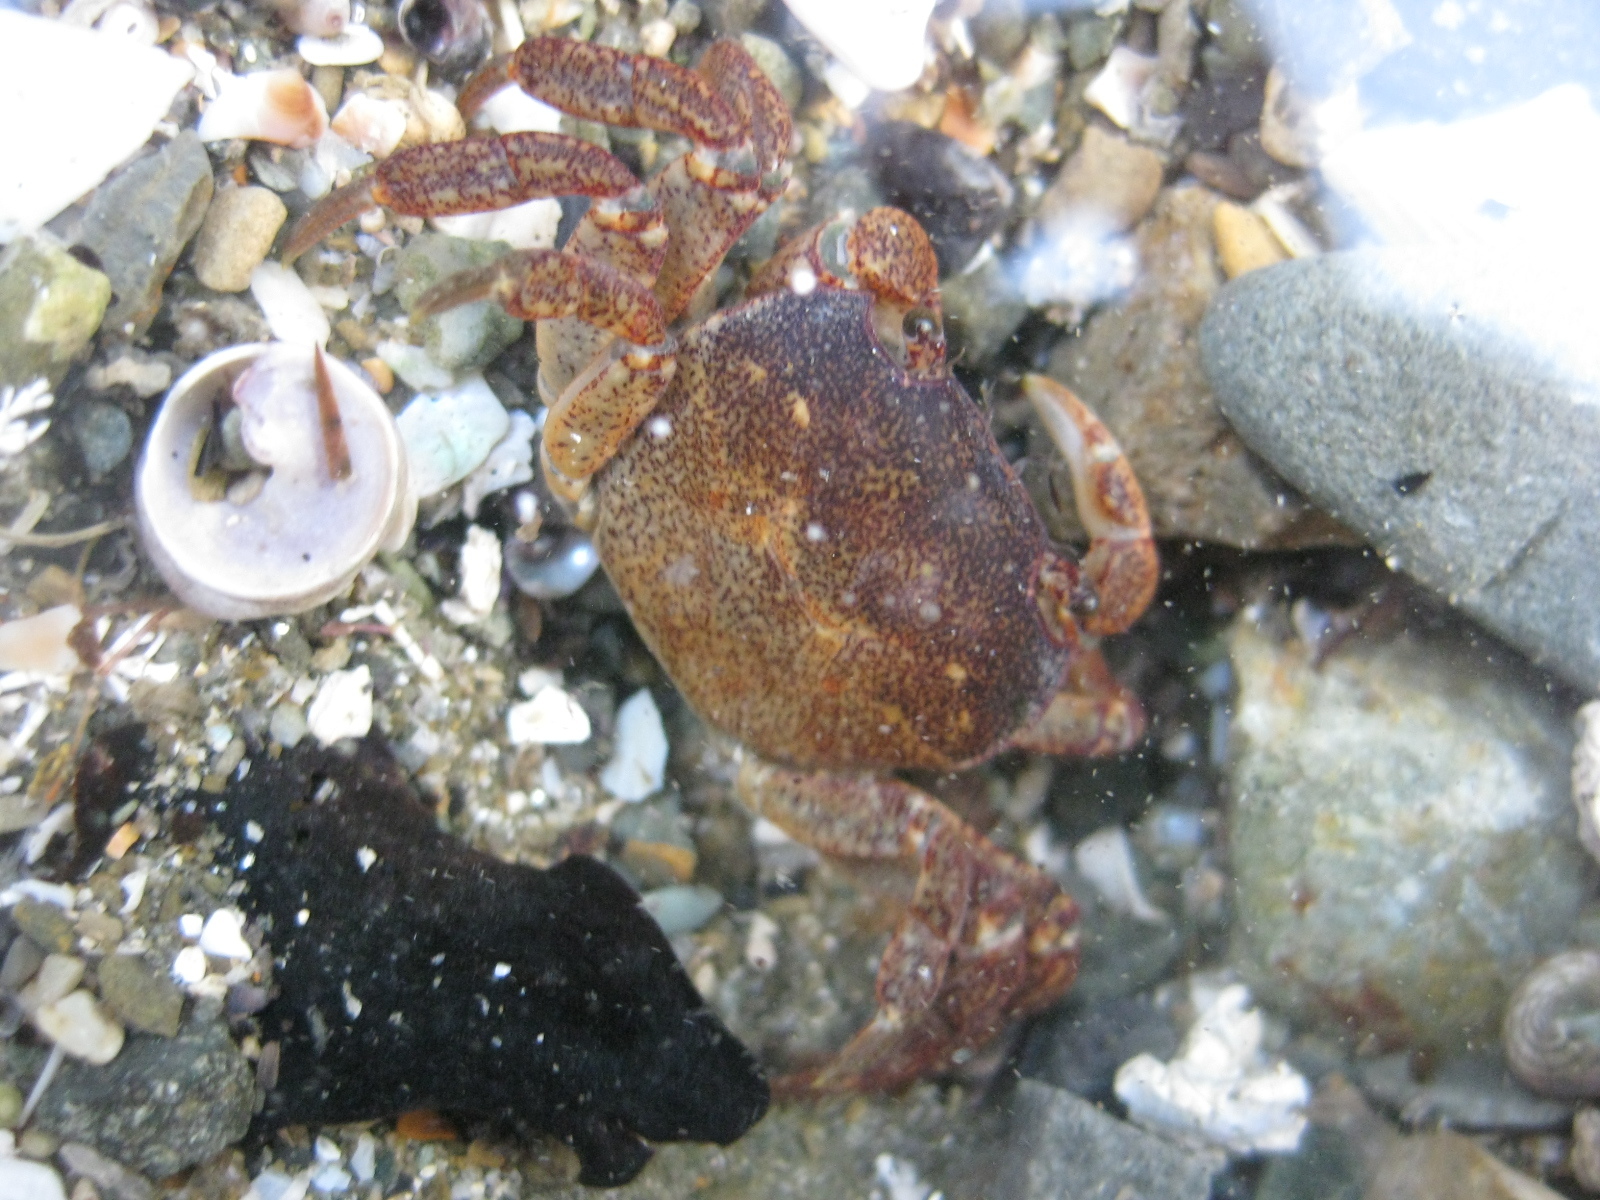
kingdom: Animalia
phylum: Arthropoda
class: Malacostraca
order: Decapoda
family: Varunidae
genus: Cyclograpsus
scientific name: Cyclograpsus lavauxi
